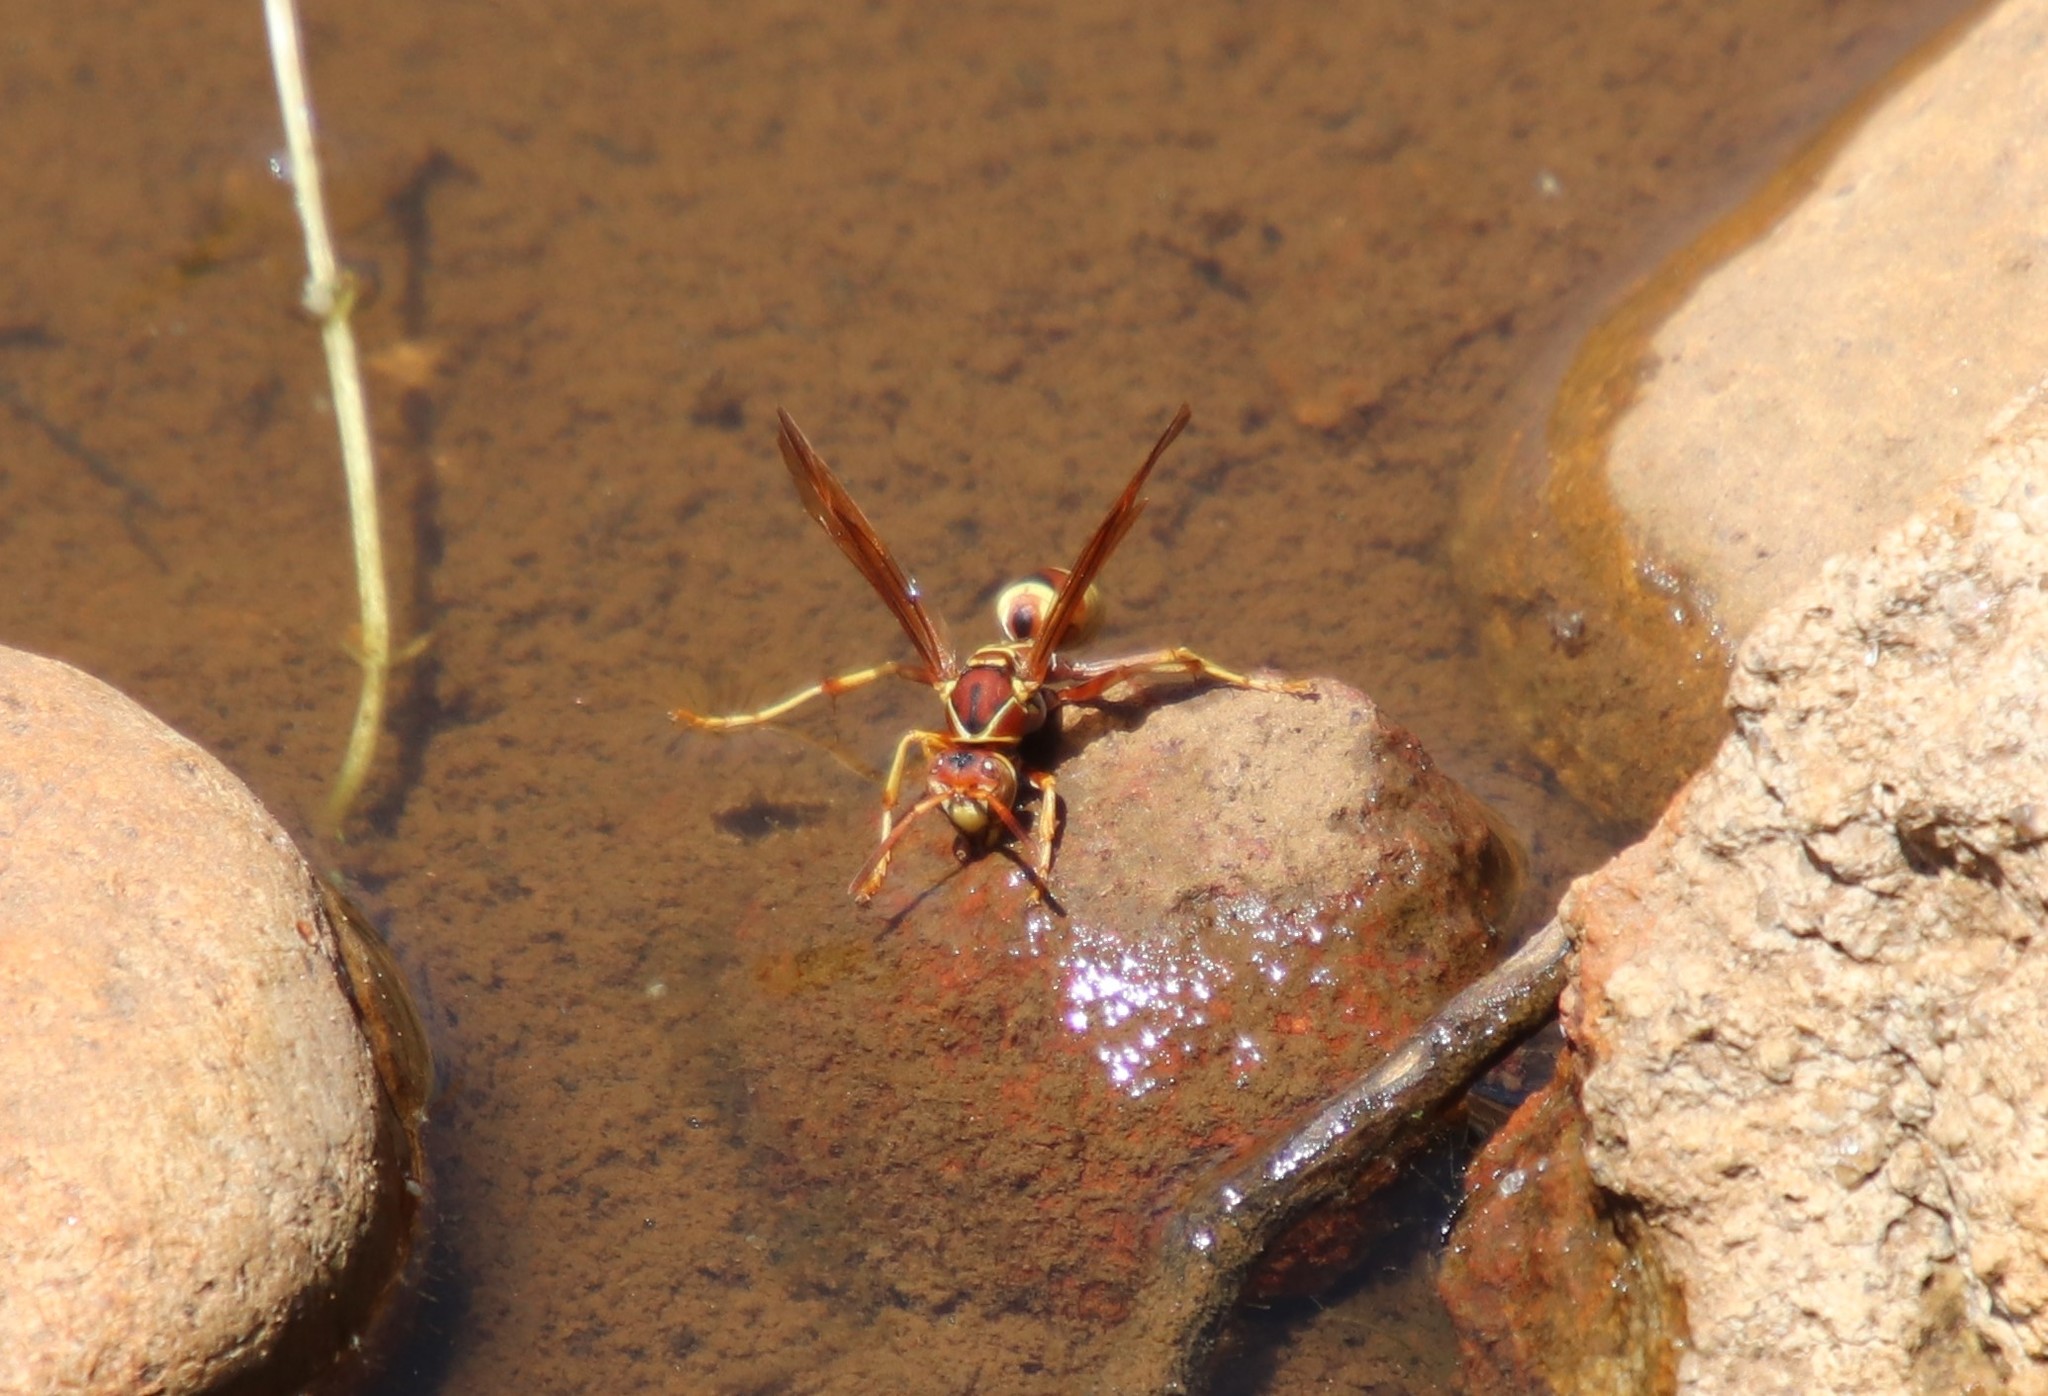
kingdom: Animalia
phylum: Arthropoda
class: Insecta
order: Hymenoptera
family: Eumenidae
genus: Polistes
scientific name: Polistes dorsalis
